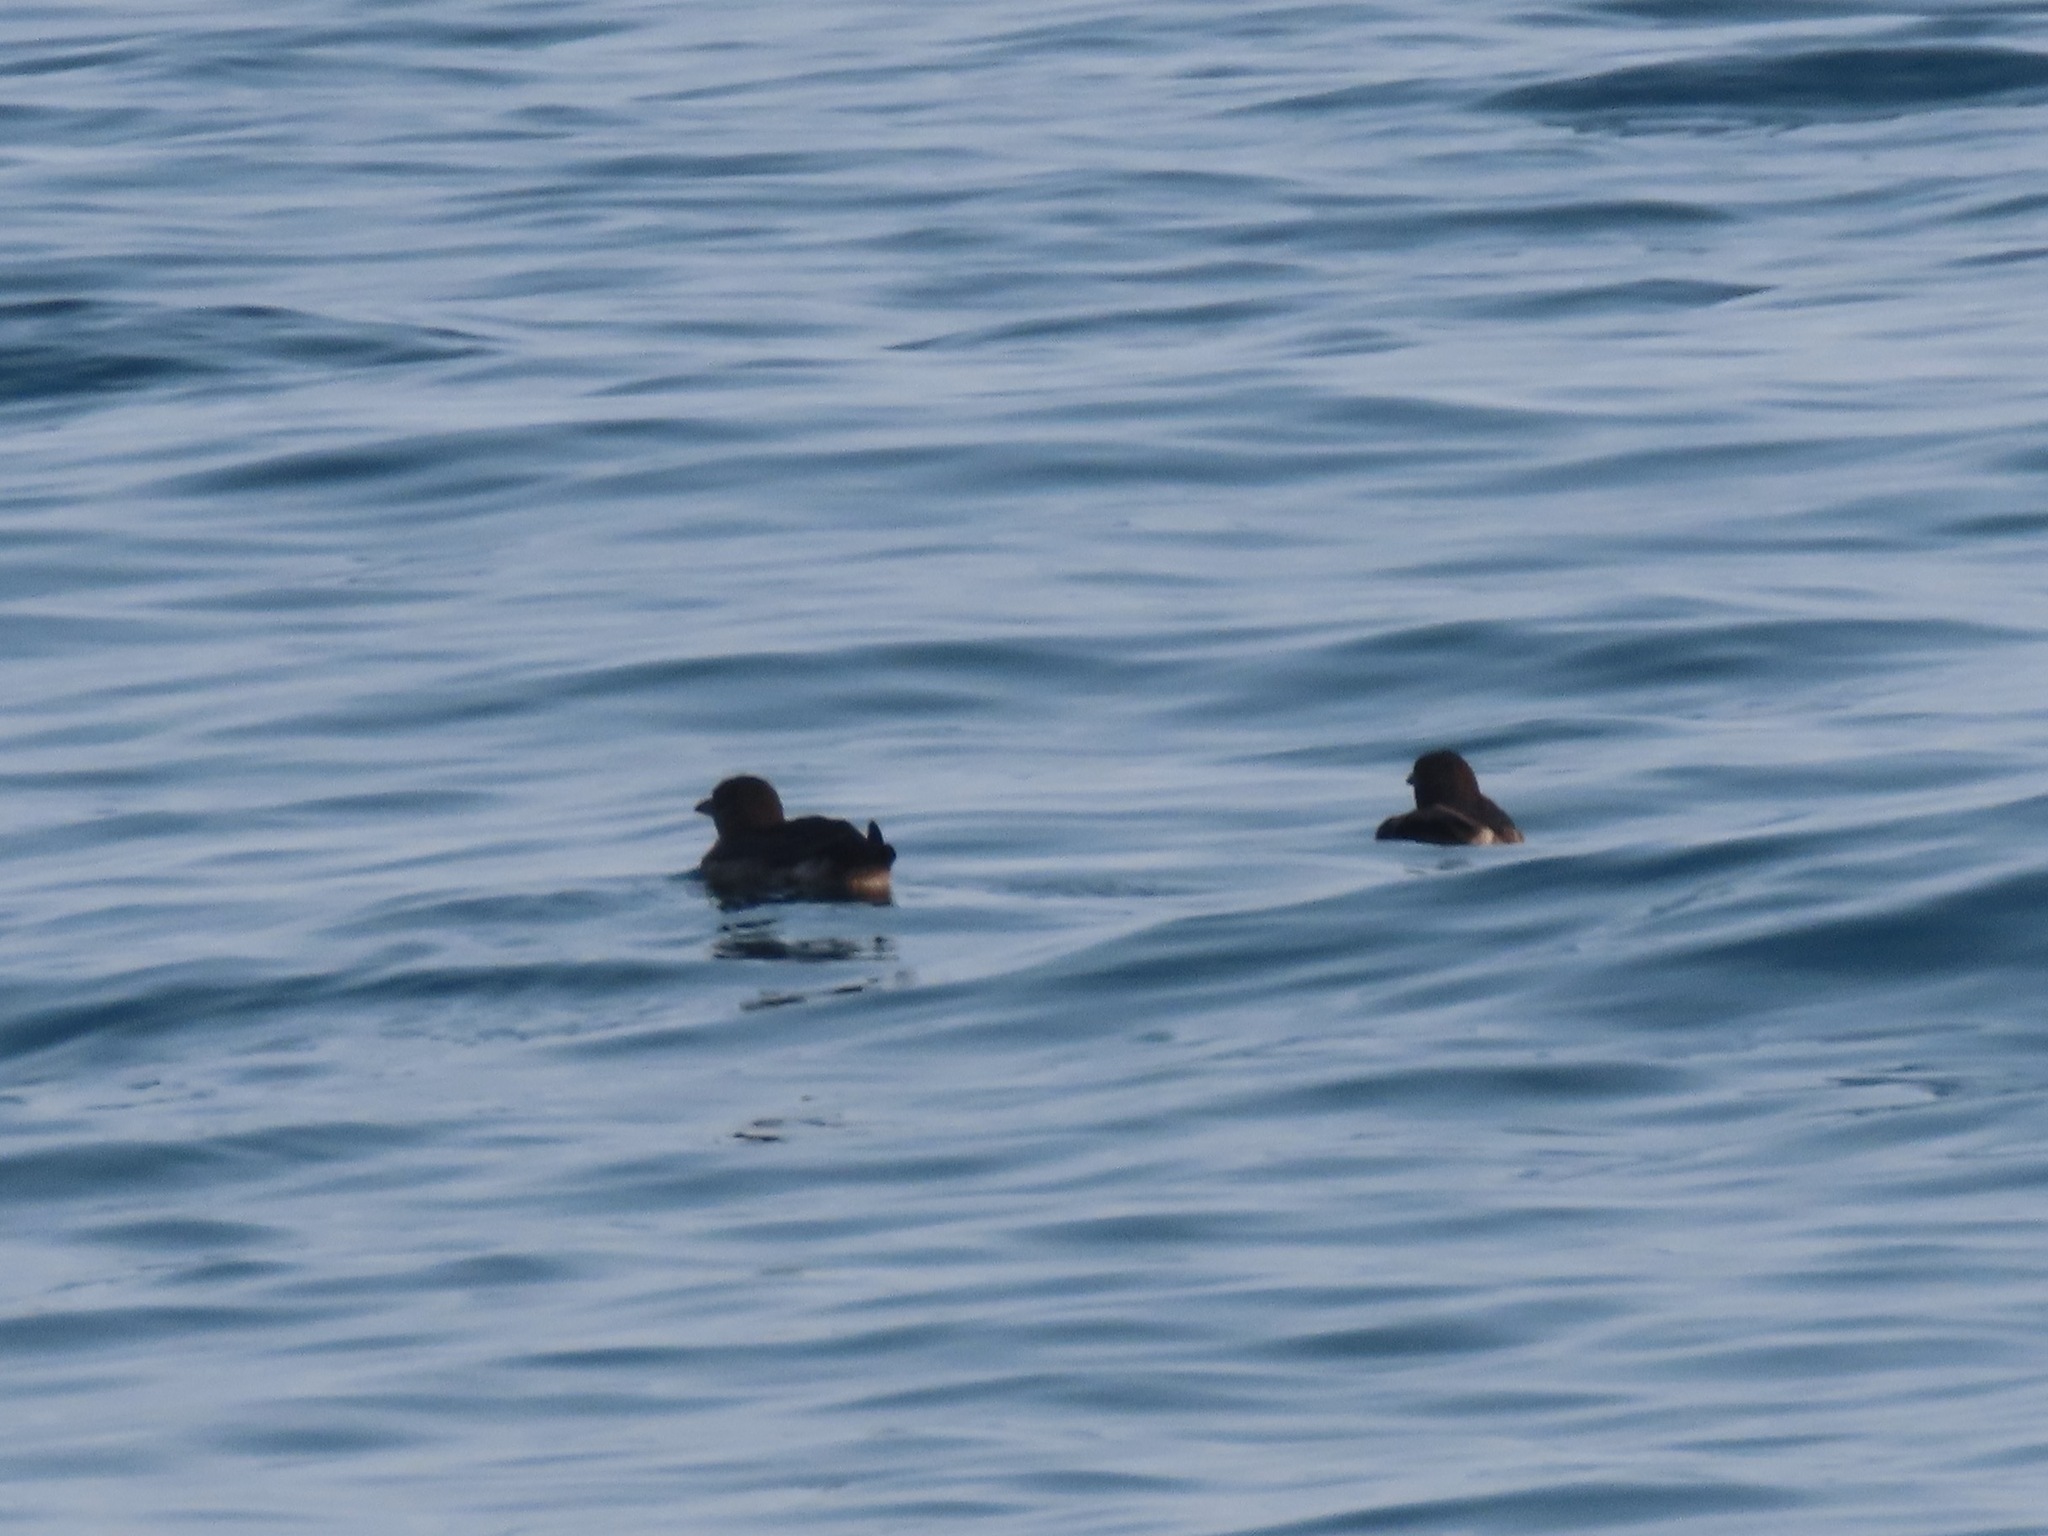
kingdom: Animalia
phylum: Chordata
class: Aves
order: Charadriiformes
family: Alcidae
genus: Cerorhinca
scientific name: Cerorhinca monocerata
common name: Rhinoceros auklet
